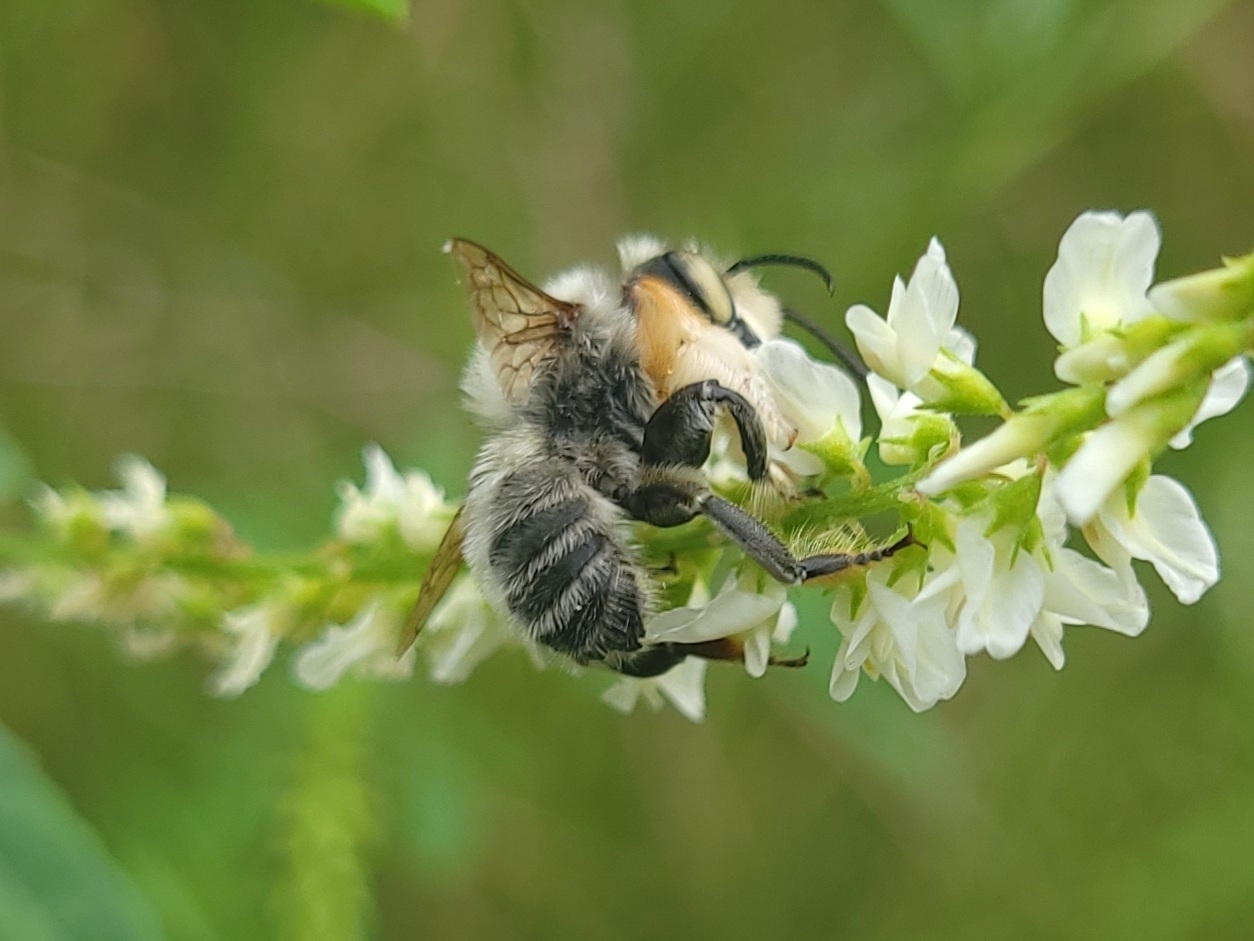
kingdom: Animalia
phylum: Arthropoda
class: Insecta
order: Hymenoptera
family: Megachilidae
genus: Megachile
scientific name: Megachile latimanus
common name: Leafcutting bee
